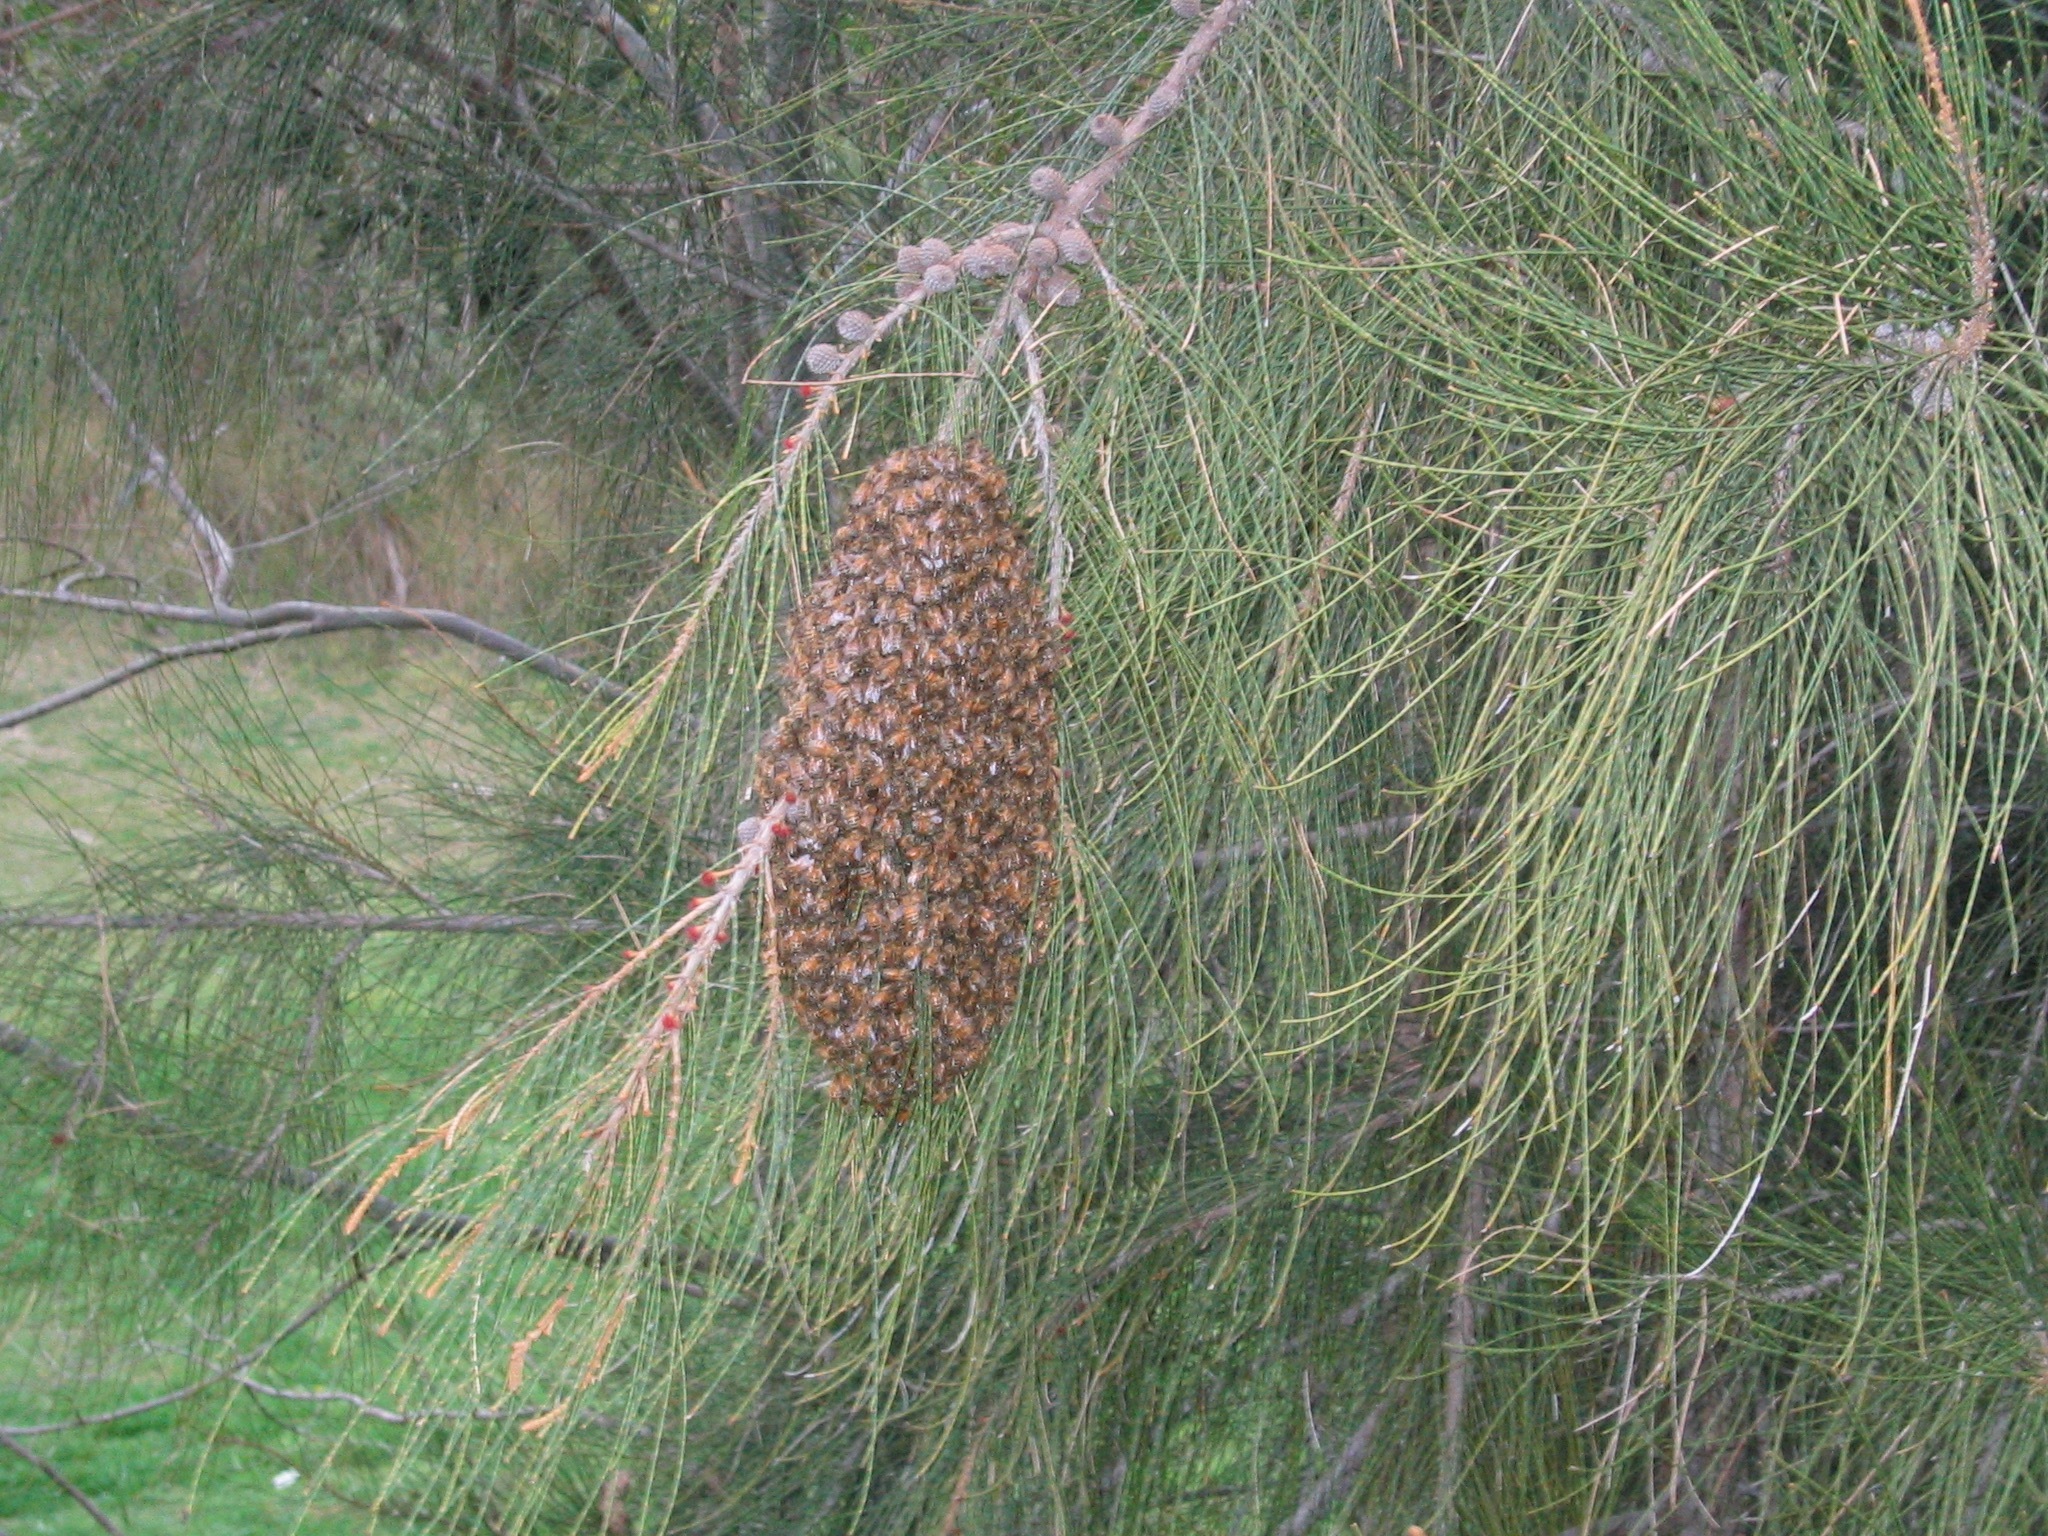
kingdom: Animalia
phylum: Arthropoda
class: Insecta
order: Hymenoptera
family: Apidae
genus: Apis
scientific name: Apis mellifera
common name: Honey bee
